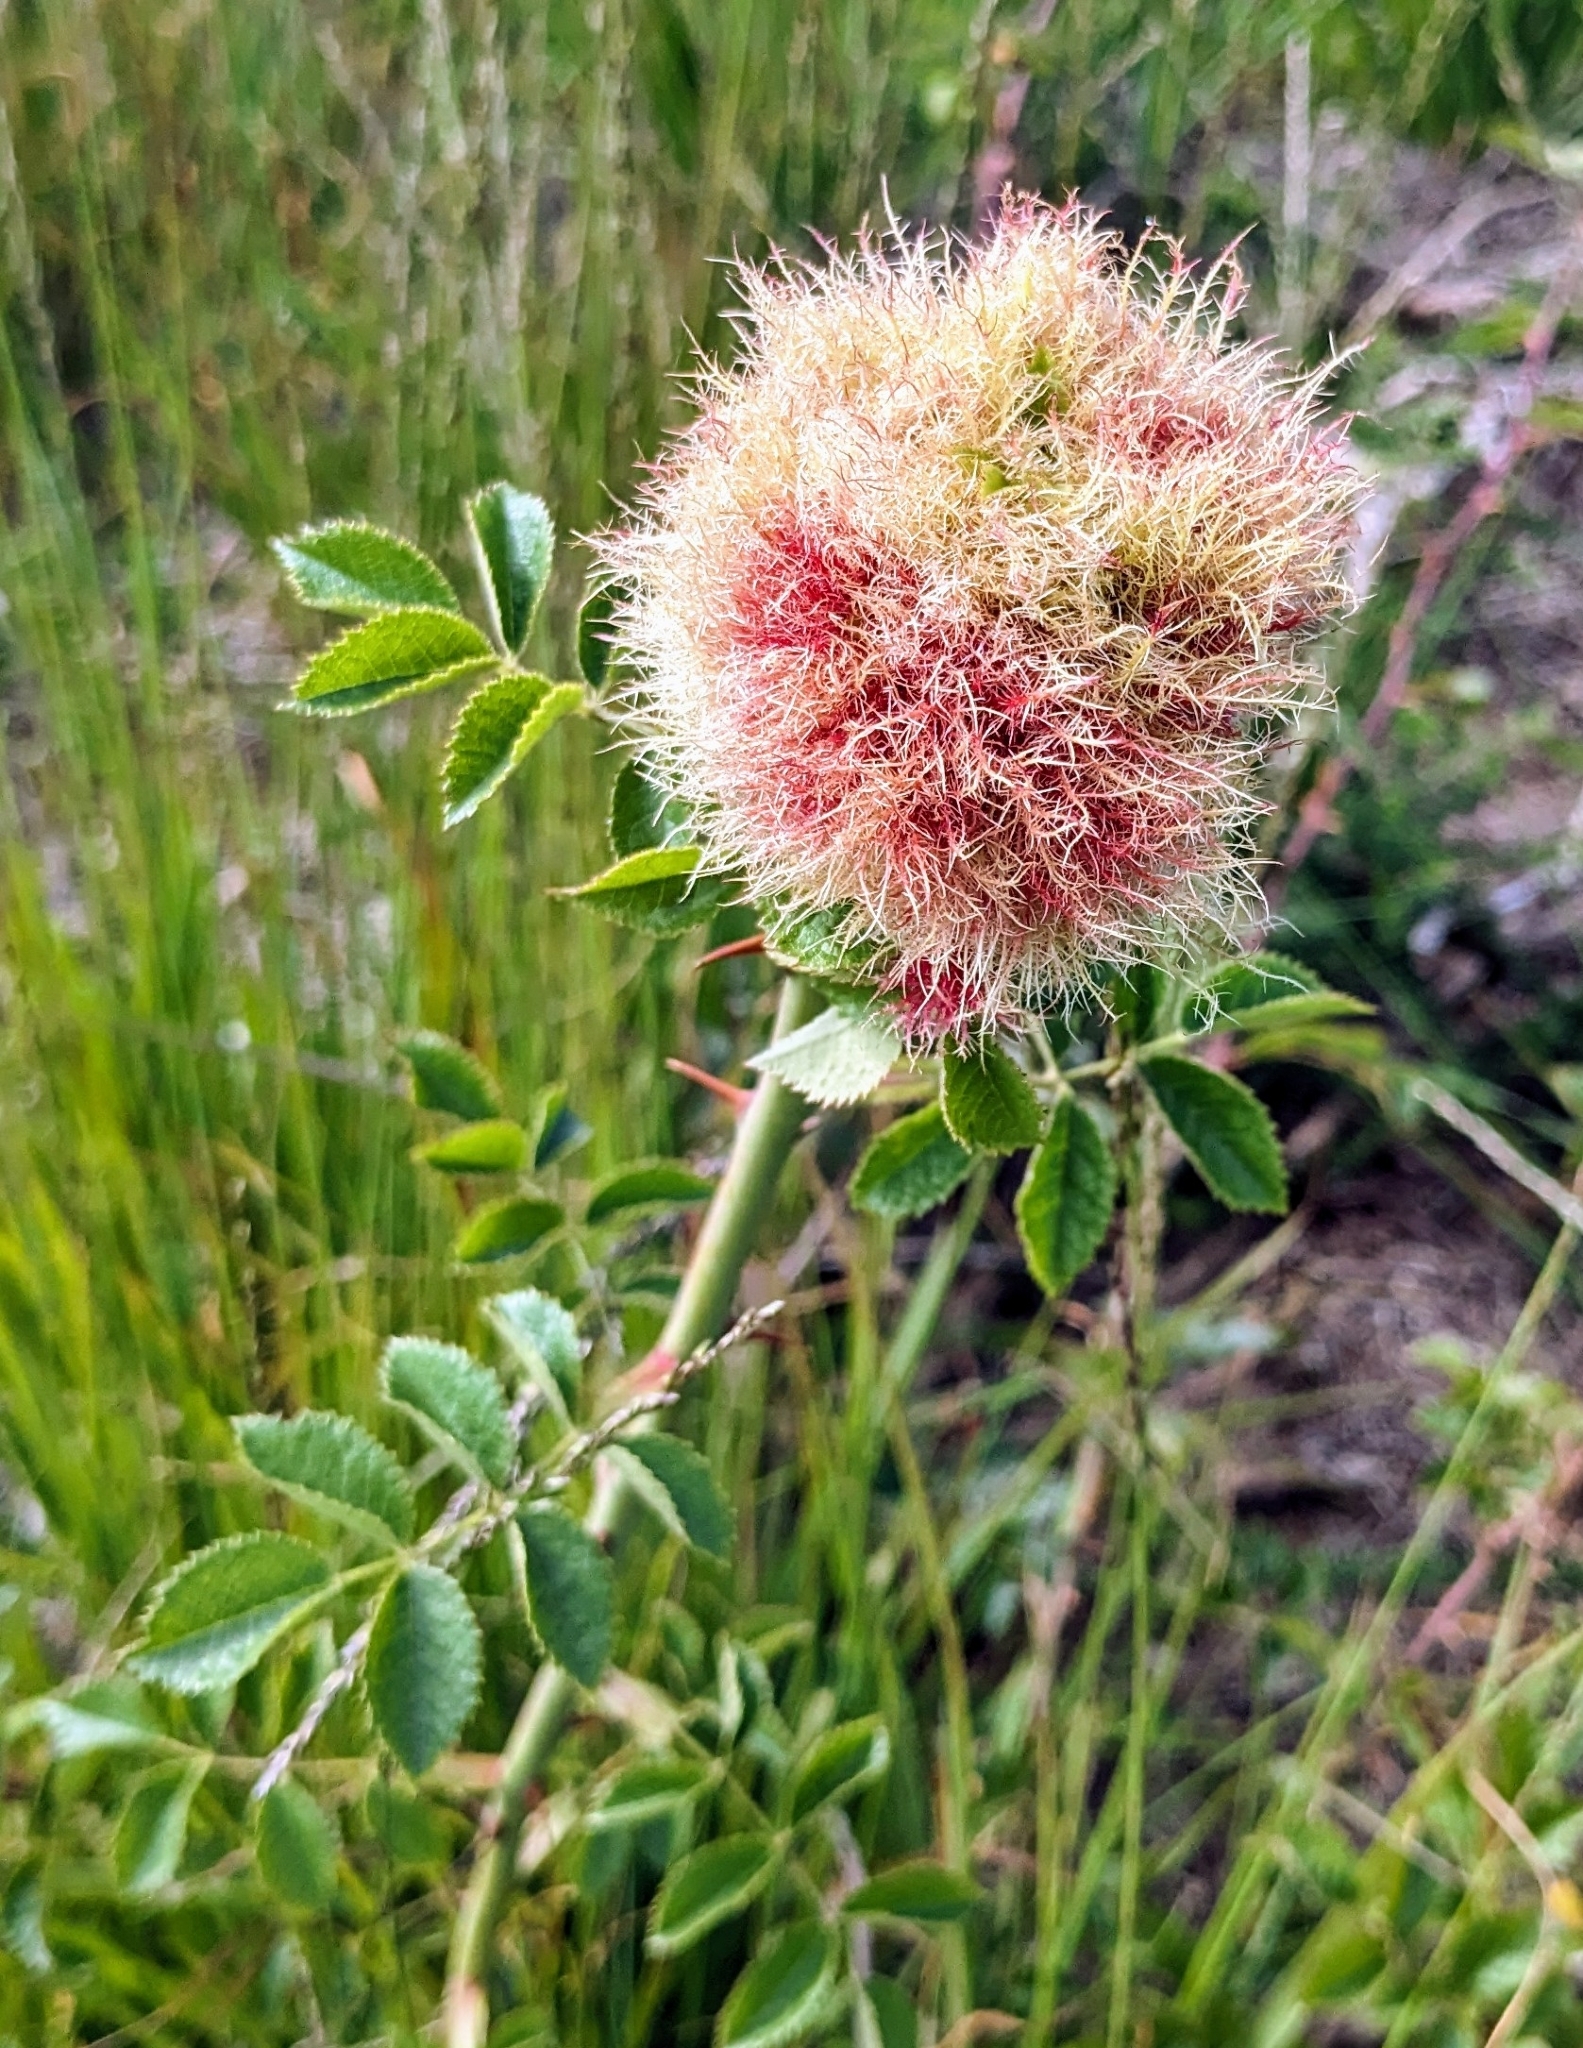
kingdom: Animalia
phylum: Arthropoda
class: Insecta
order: Hymenoptera
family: Cynipidae
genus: Diplolepis
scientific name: Diplolepis rosae
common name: Bedeguar gall
